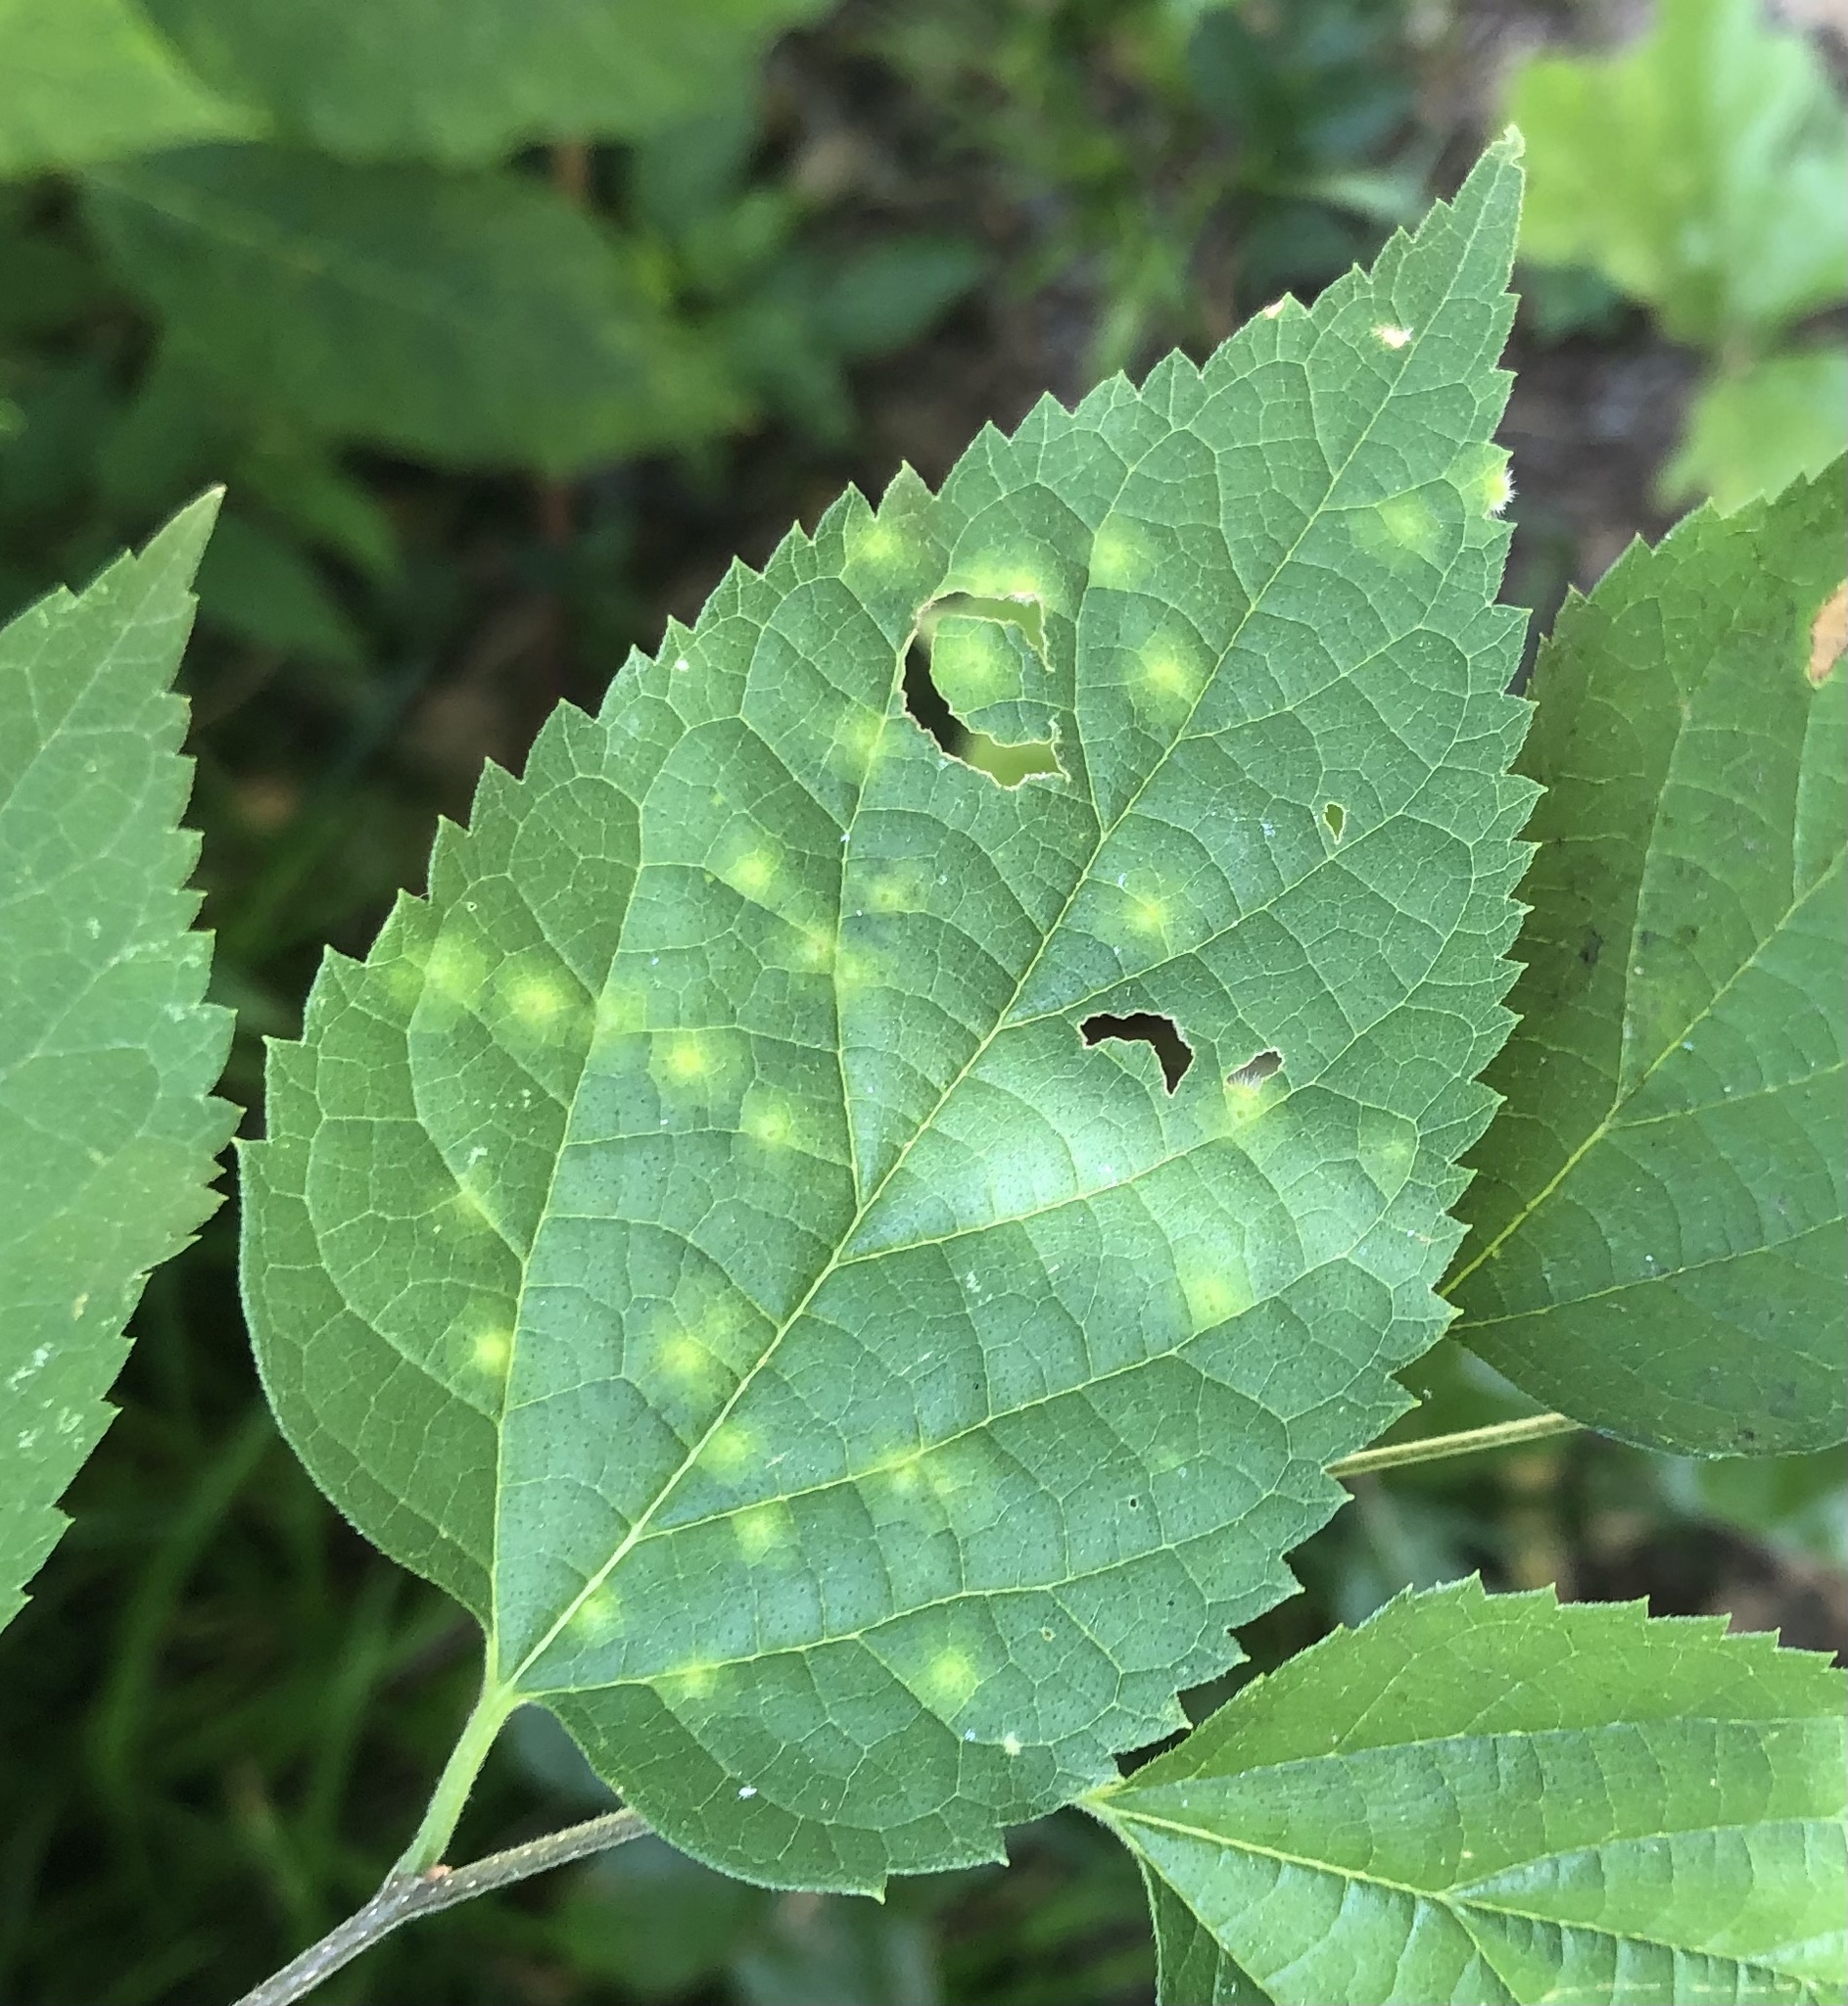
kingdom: Animalia
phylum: Arthropoda
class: Insecta
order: Diptera
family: Cecidomyiidae
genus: Celticecis
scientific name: Celticecis acuminata
